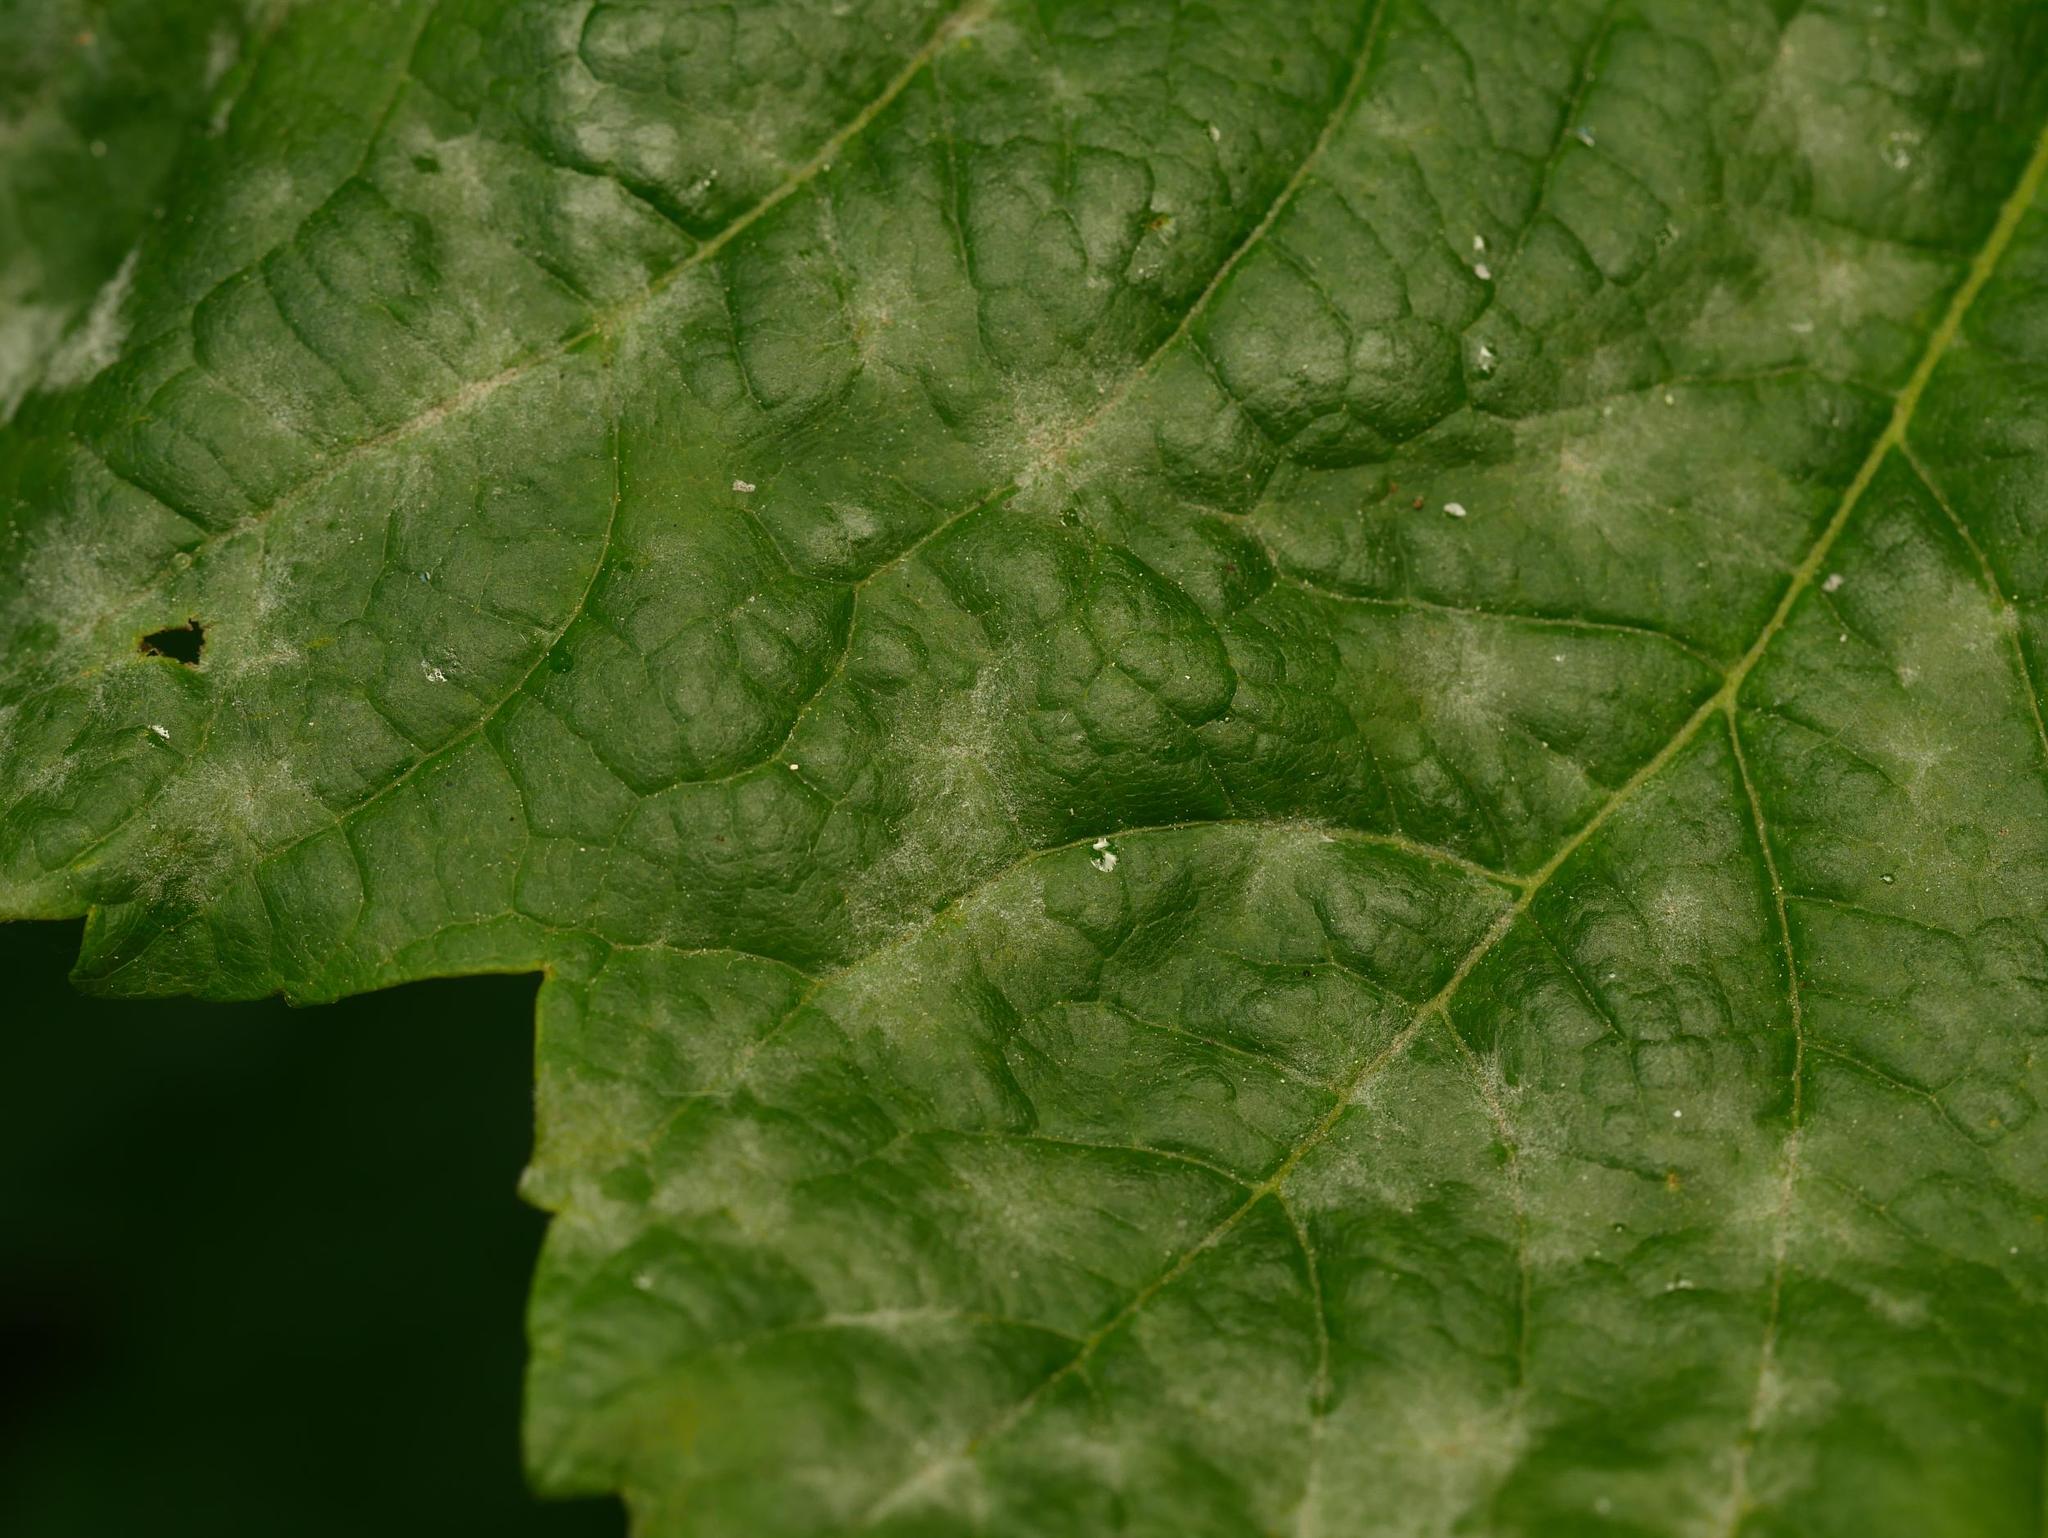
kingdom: Fungi
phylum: Ascomycota
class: Leotiomycetes
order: Helotiales
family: Erysiphaceae
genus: Sawadaea
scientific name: Sawadaea bicornis
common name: Maple mildew
